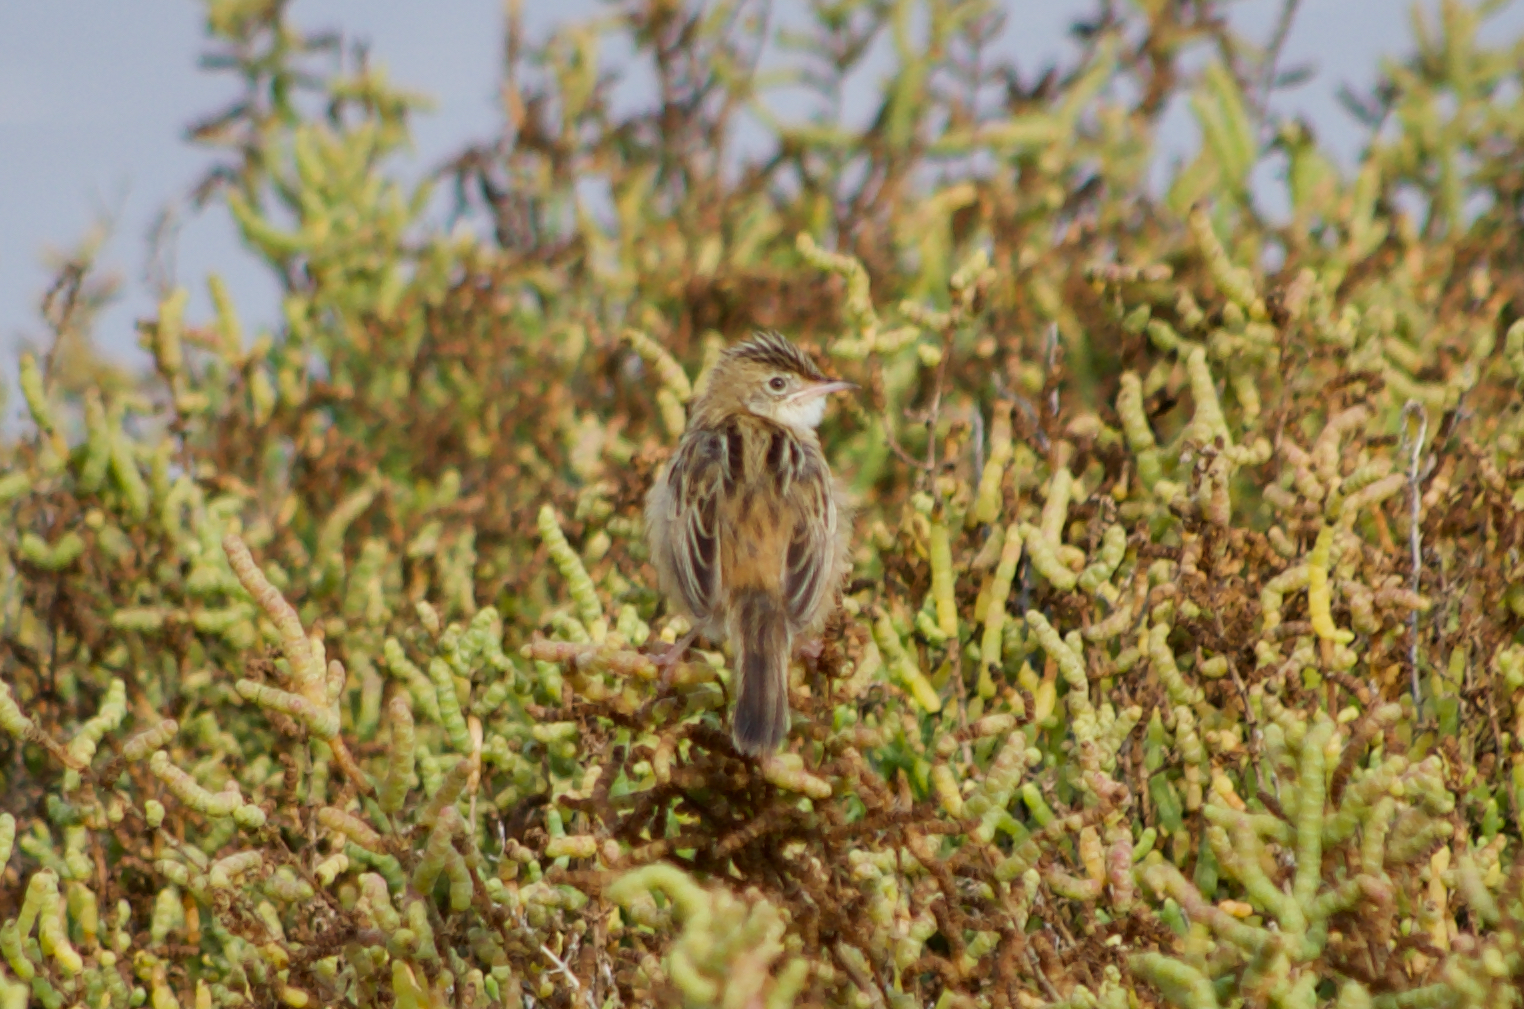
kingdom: Animalia
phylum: Chordata
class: Aves
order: Passeriformes
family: Cisticolidae
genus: Cisticola
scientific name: Cisticola juncidis
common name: Zitting cisticola
